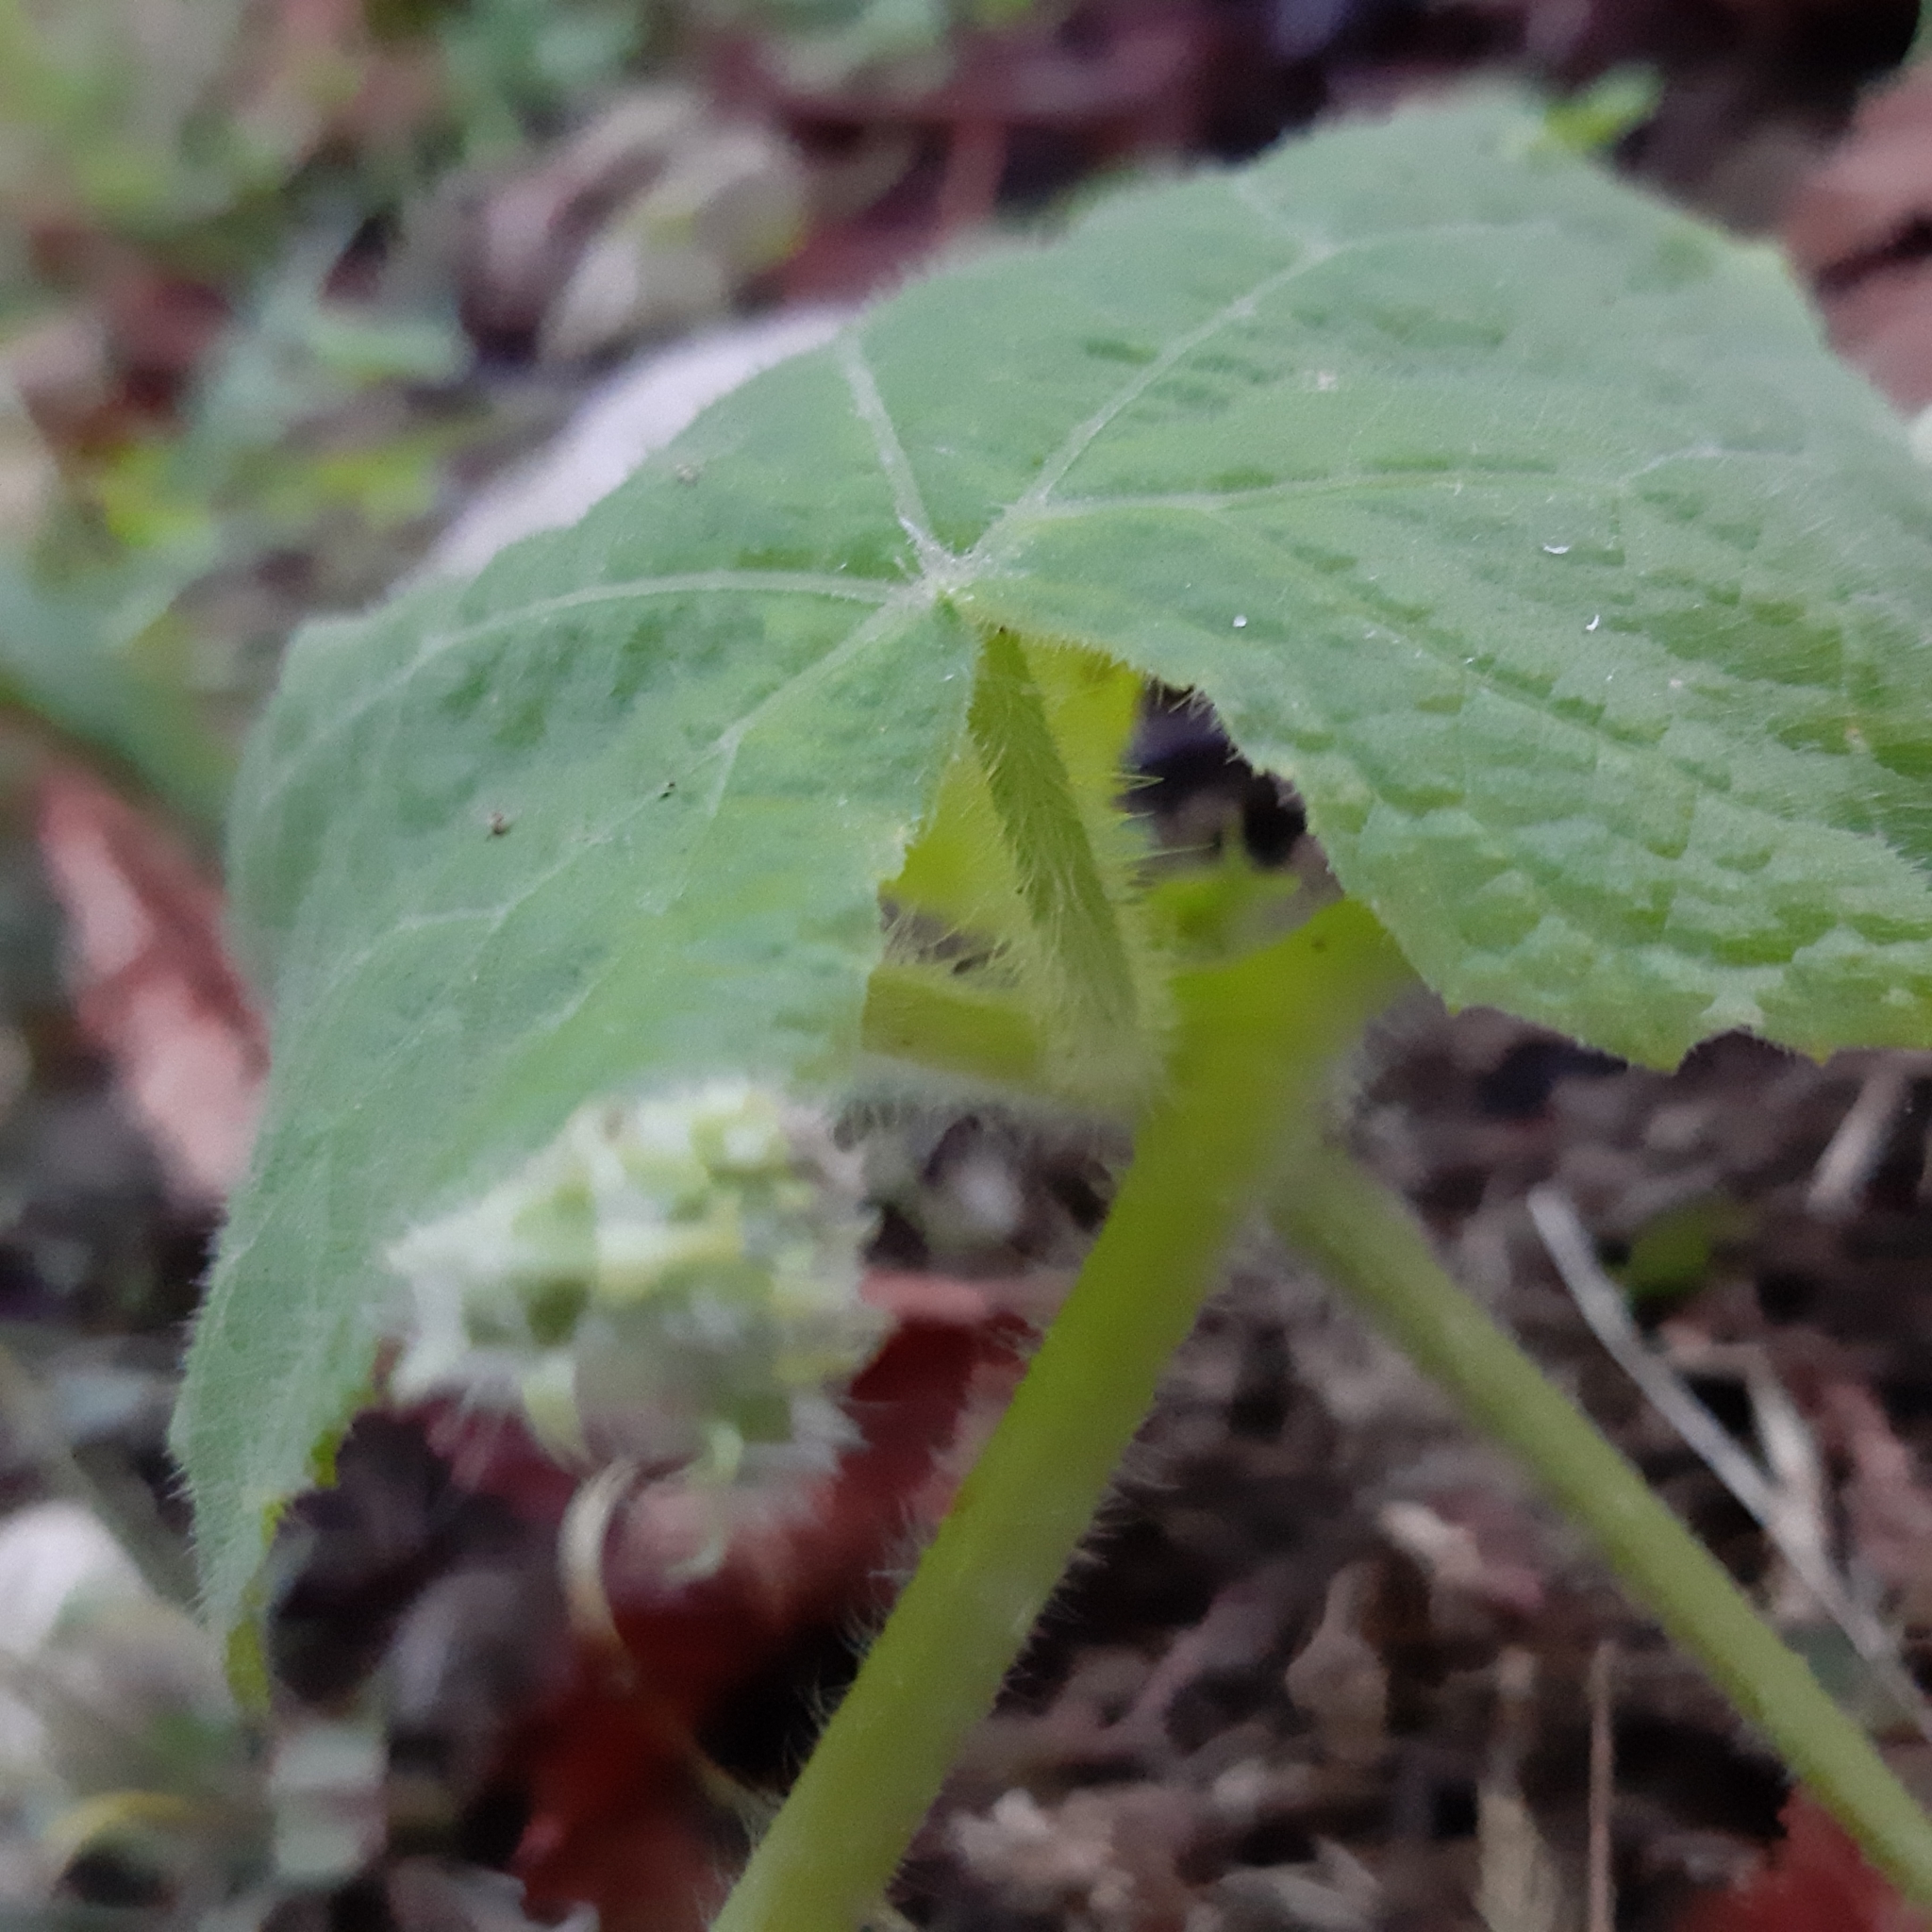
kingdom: Plantae
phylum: Tracheophyta
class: Magnoliopsida
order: Cucurbitales
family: Cucurbitaceae
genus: Sicyos
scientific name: Sicyos angulatus
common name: Angled burr cucumber
